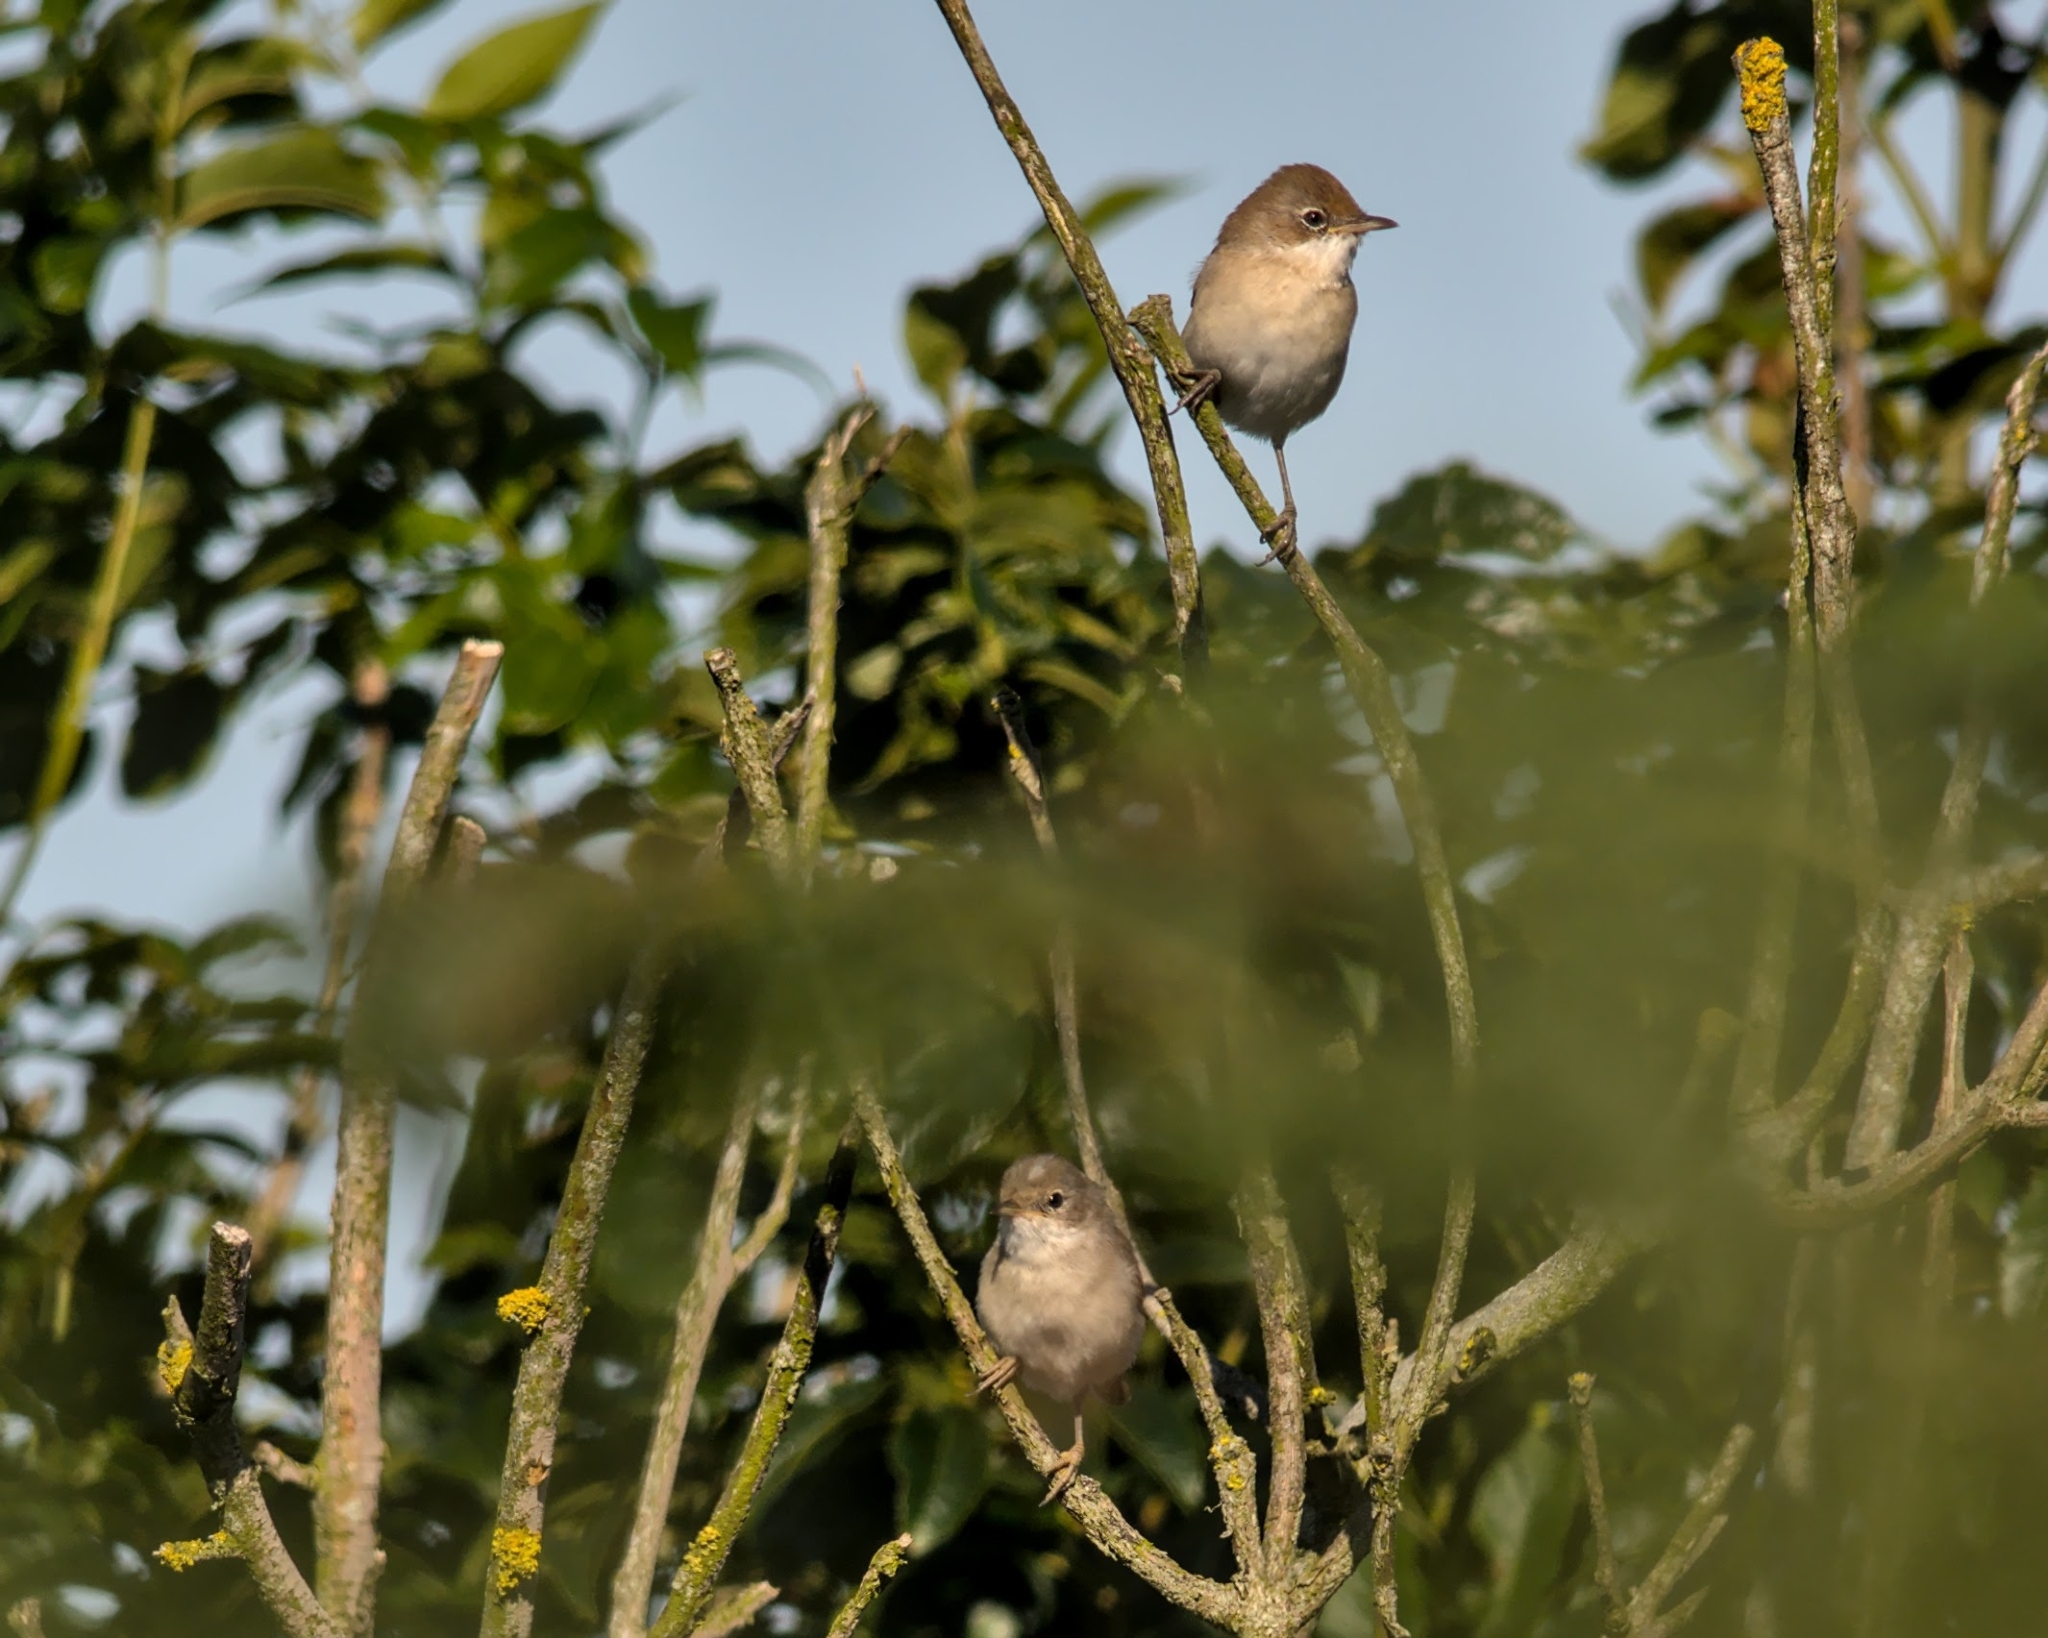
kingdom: Animalia
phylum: Chordata
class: Aves
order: Passeriformes
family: Sylviidae
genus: Sylvia
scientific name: Sylvia curruca
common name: Lesser whitethroat
